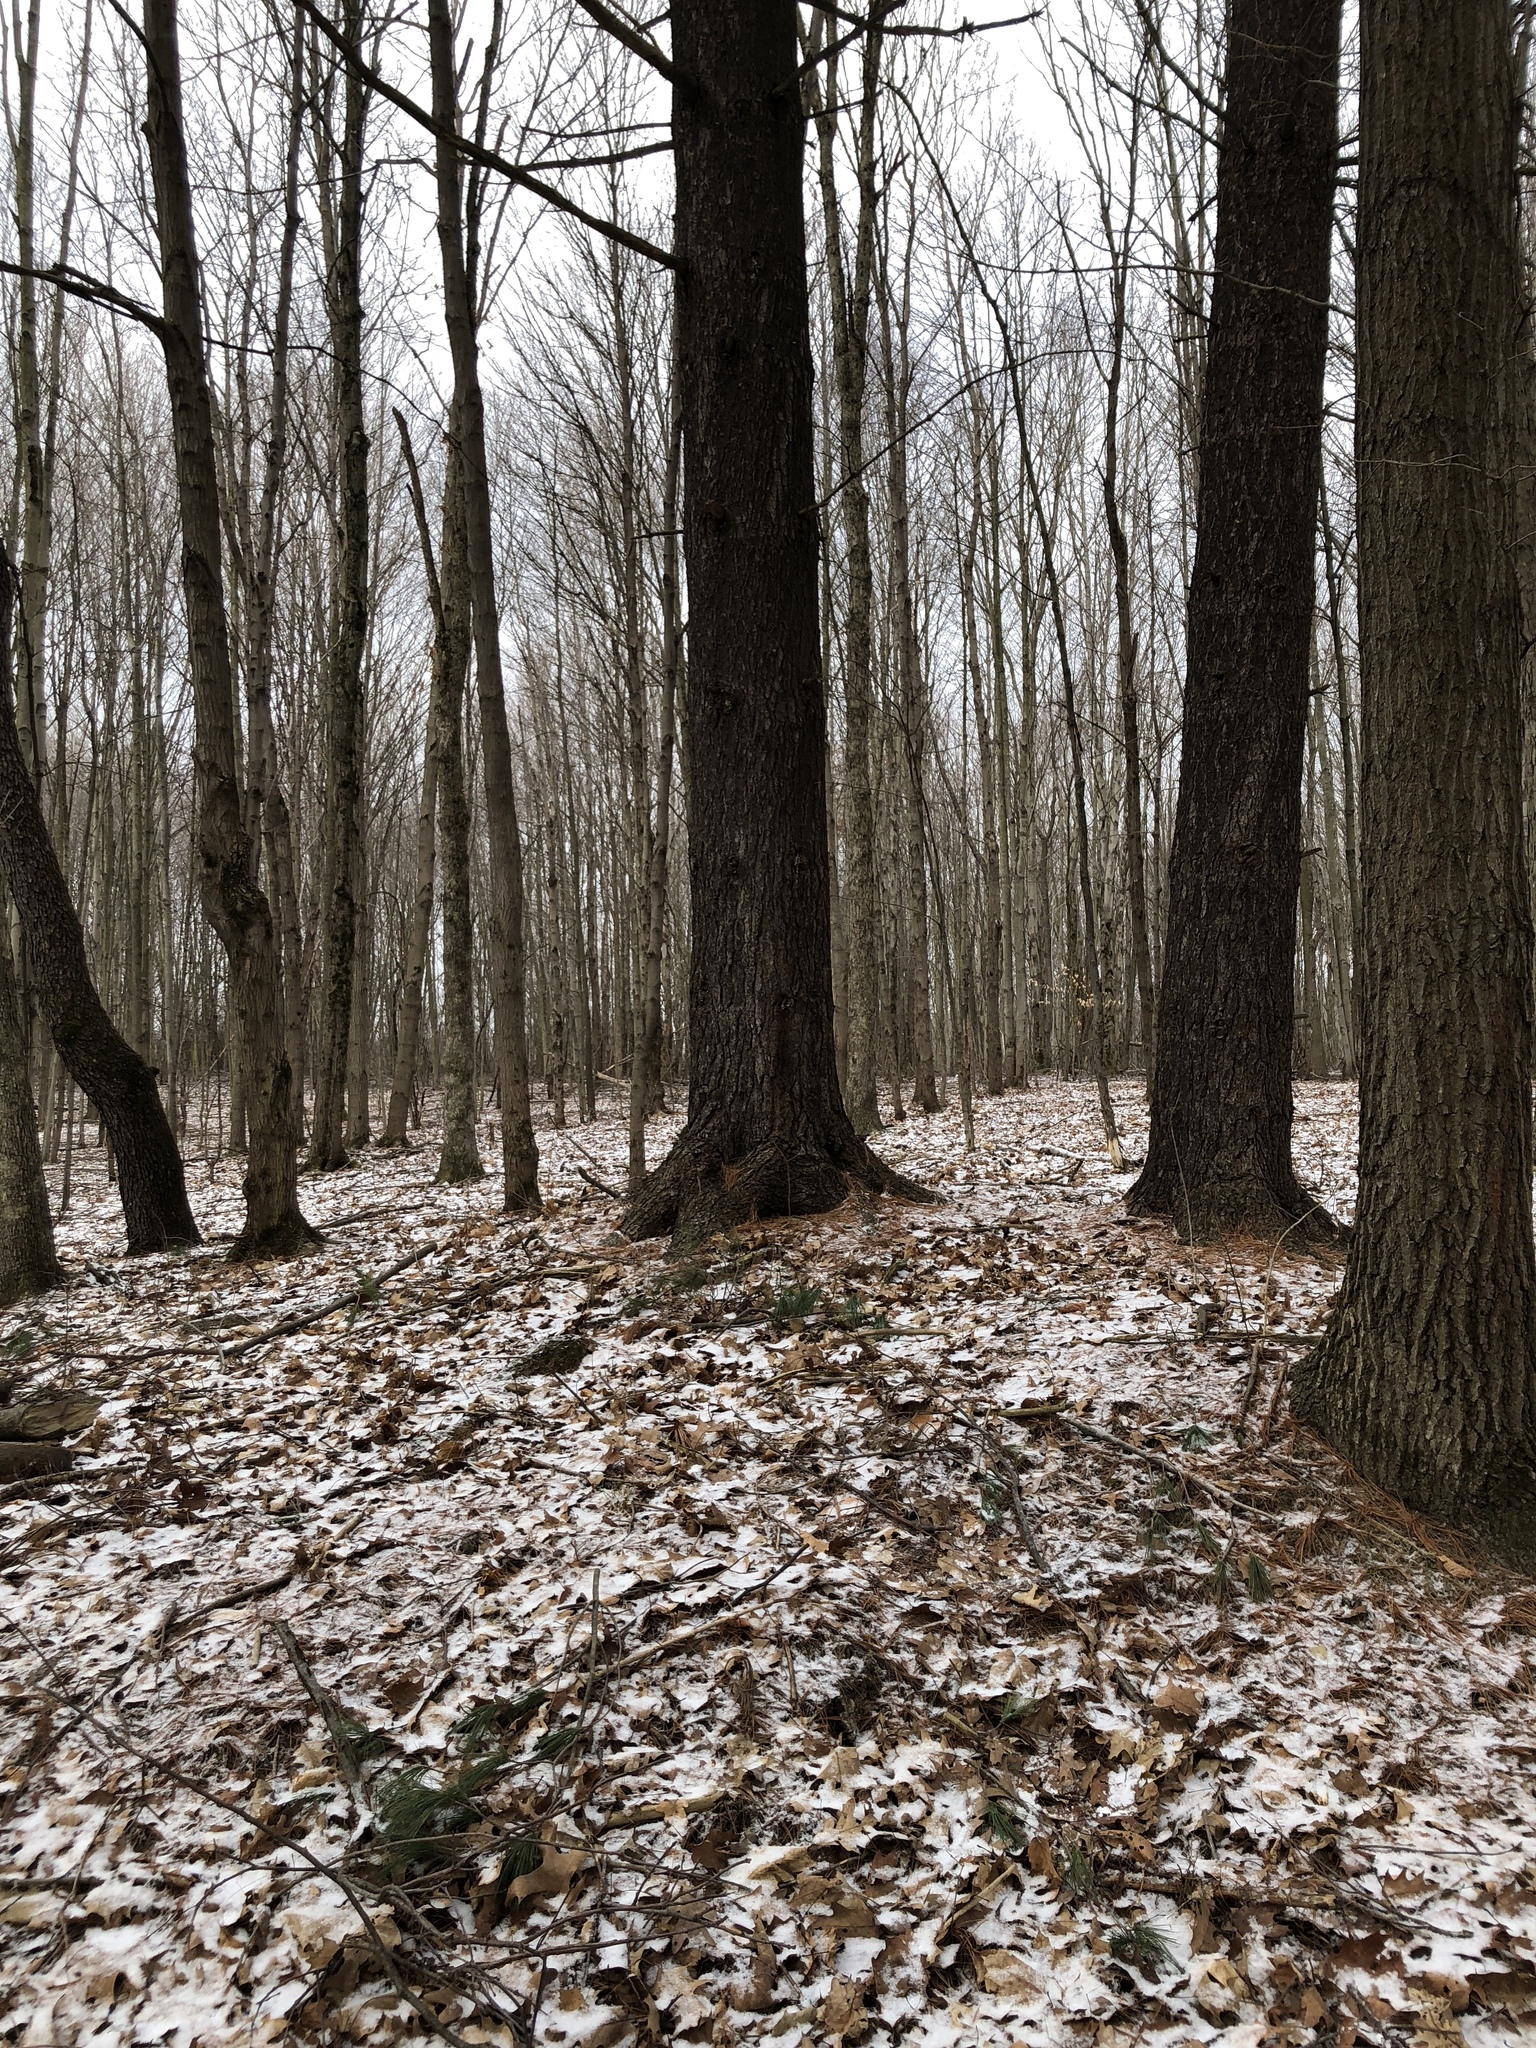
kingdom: Plantae
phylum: Tracheophyta
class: Pinopsida
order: Pinales
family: Pinaceae
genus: Pinus
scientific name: Pinus strobus
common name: Weymouth pine
